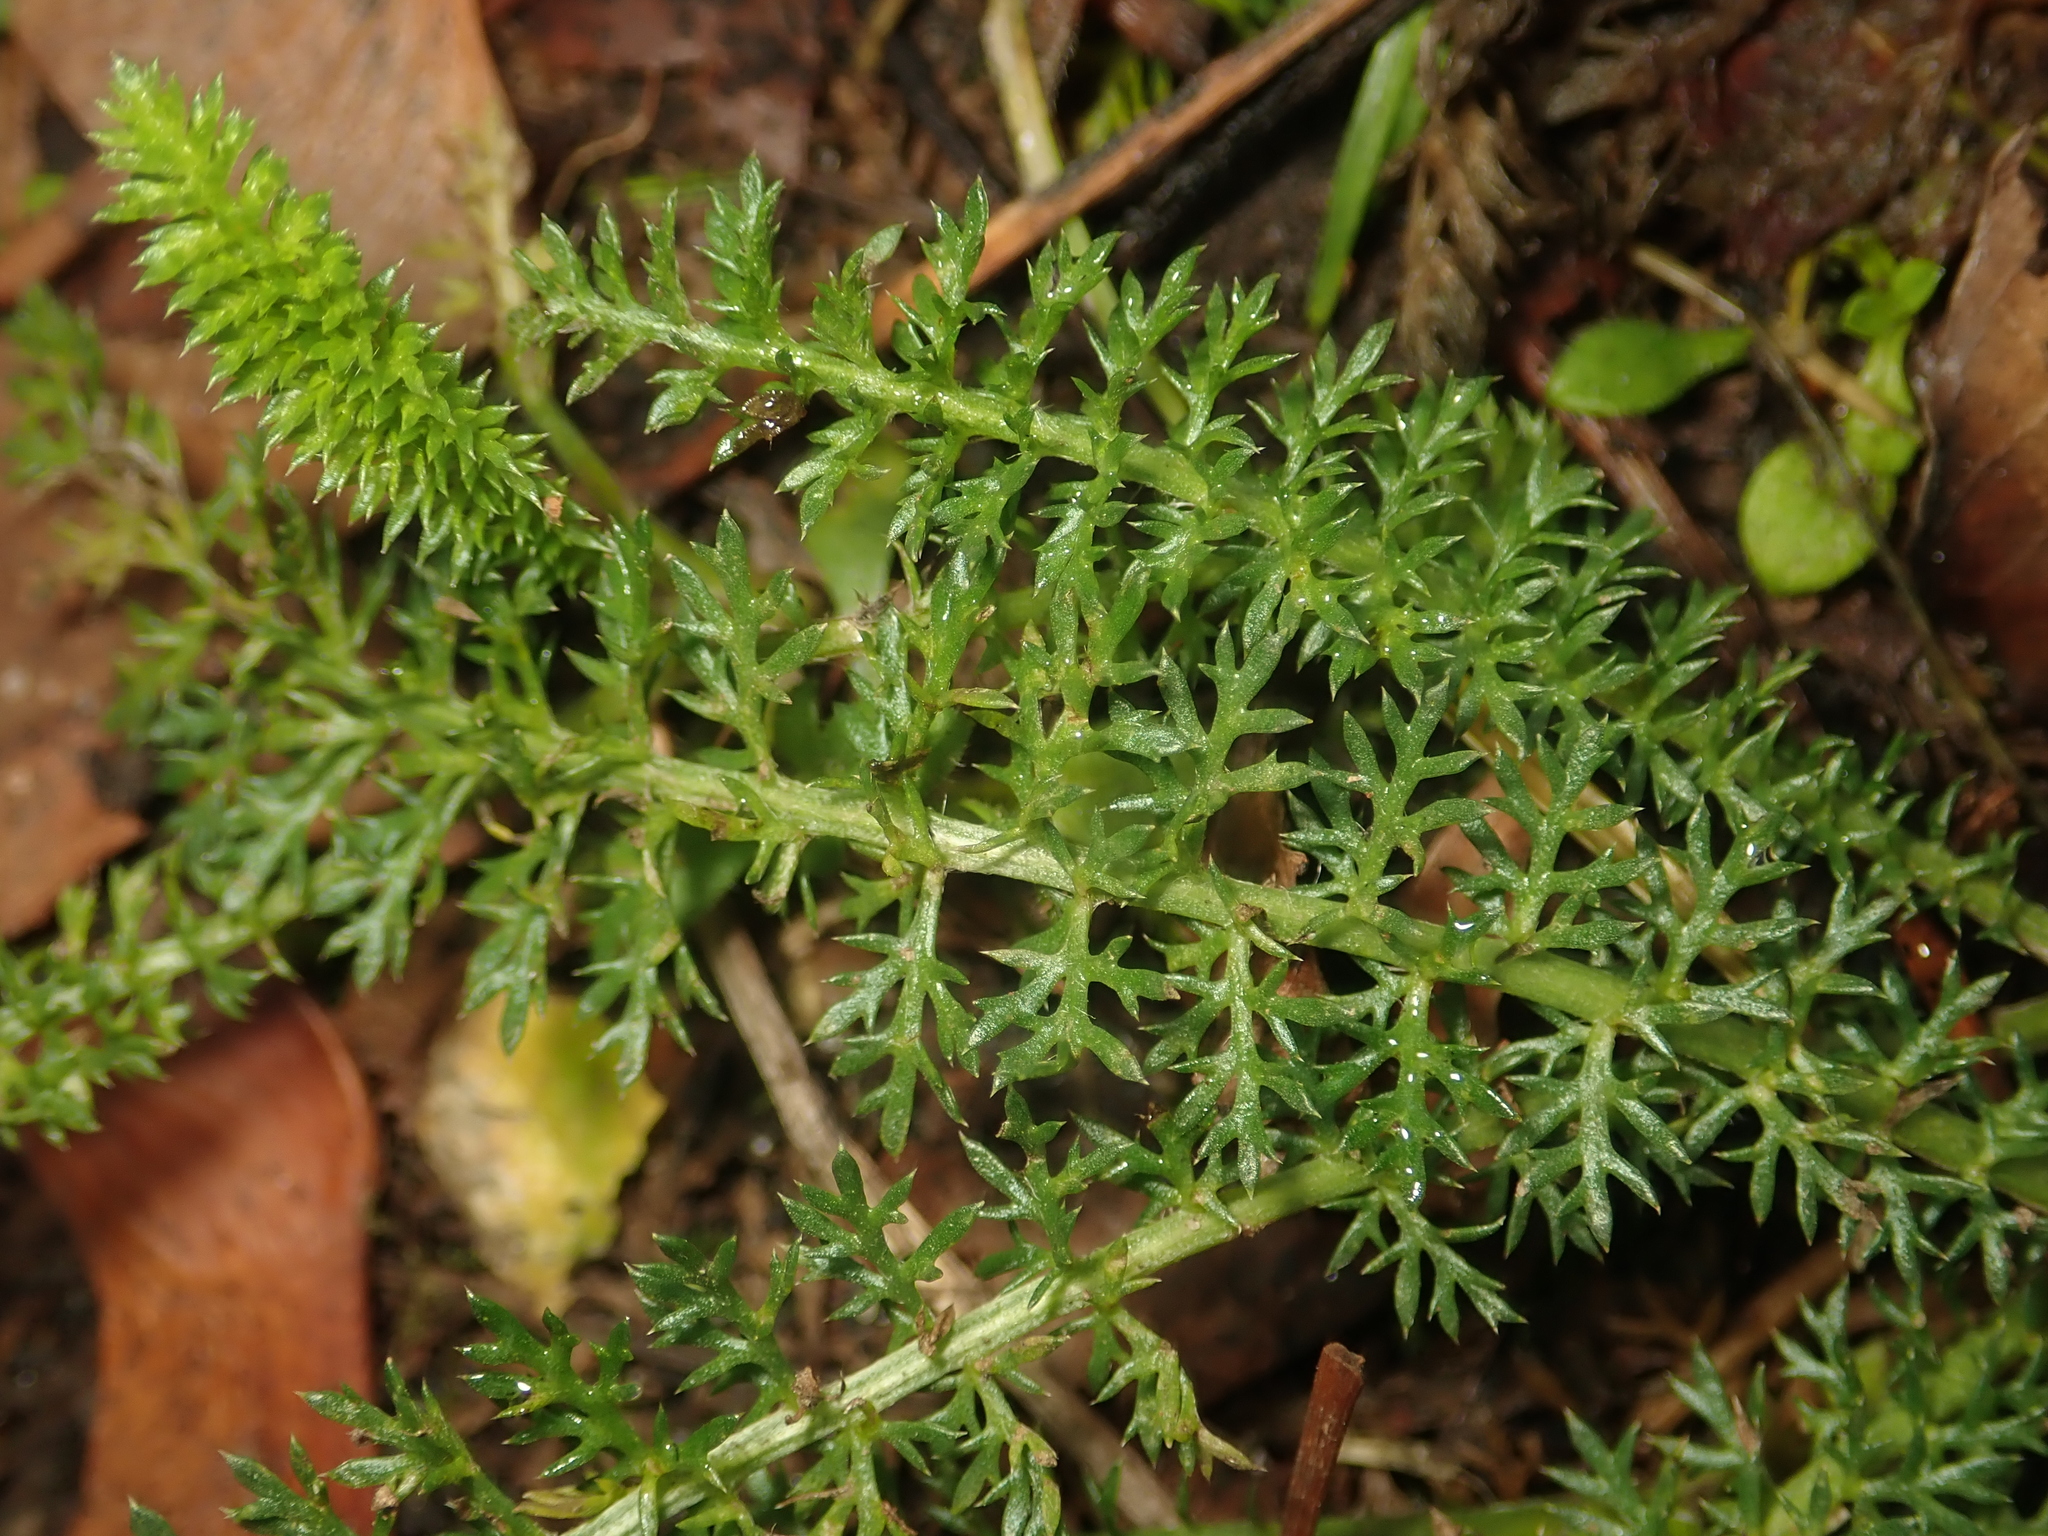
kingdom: Plantae
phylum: Tracheophyta
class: Magnoliopsida
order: Asterales
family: Asteraceae
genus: Achillea
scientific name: Achillea millefolium
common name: Yarrow
